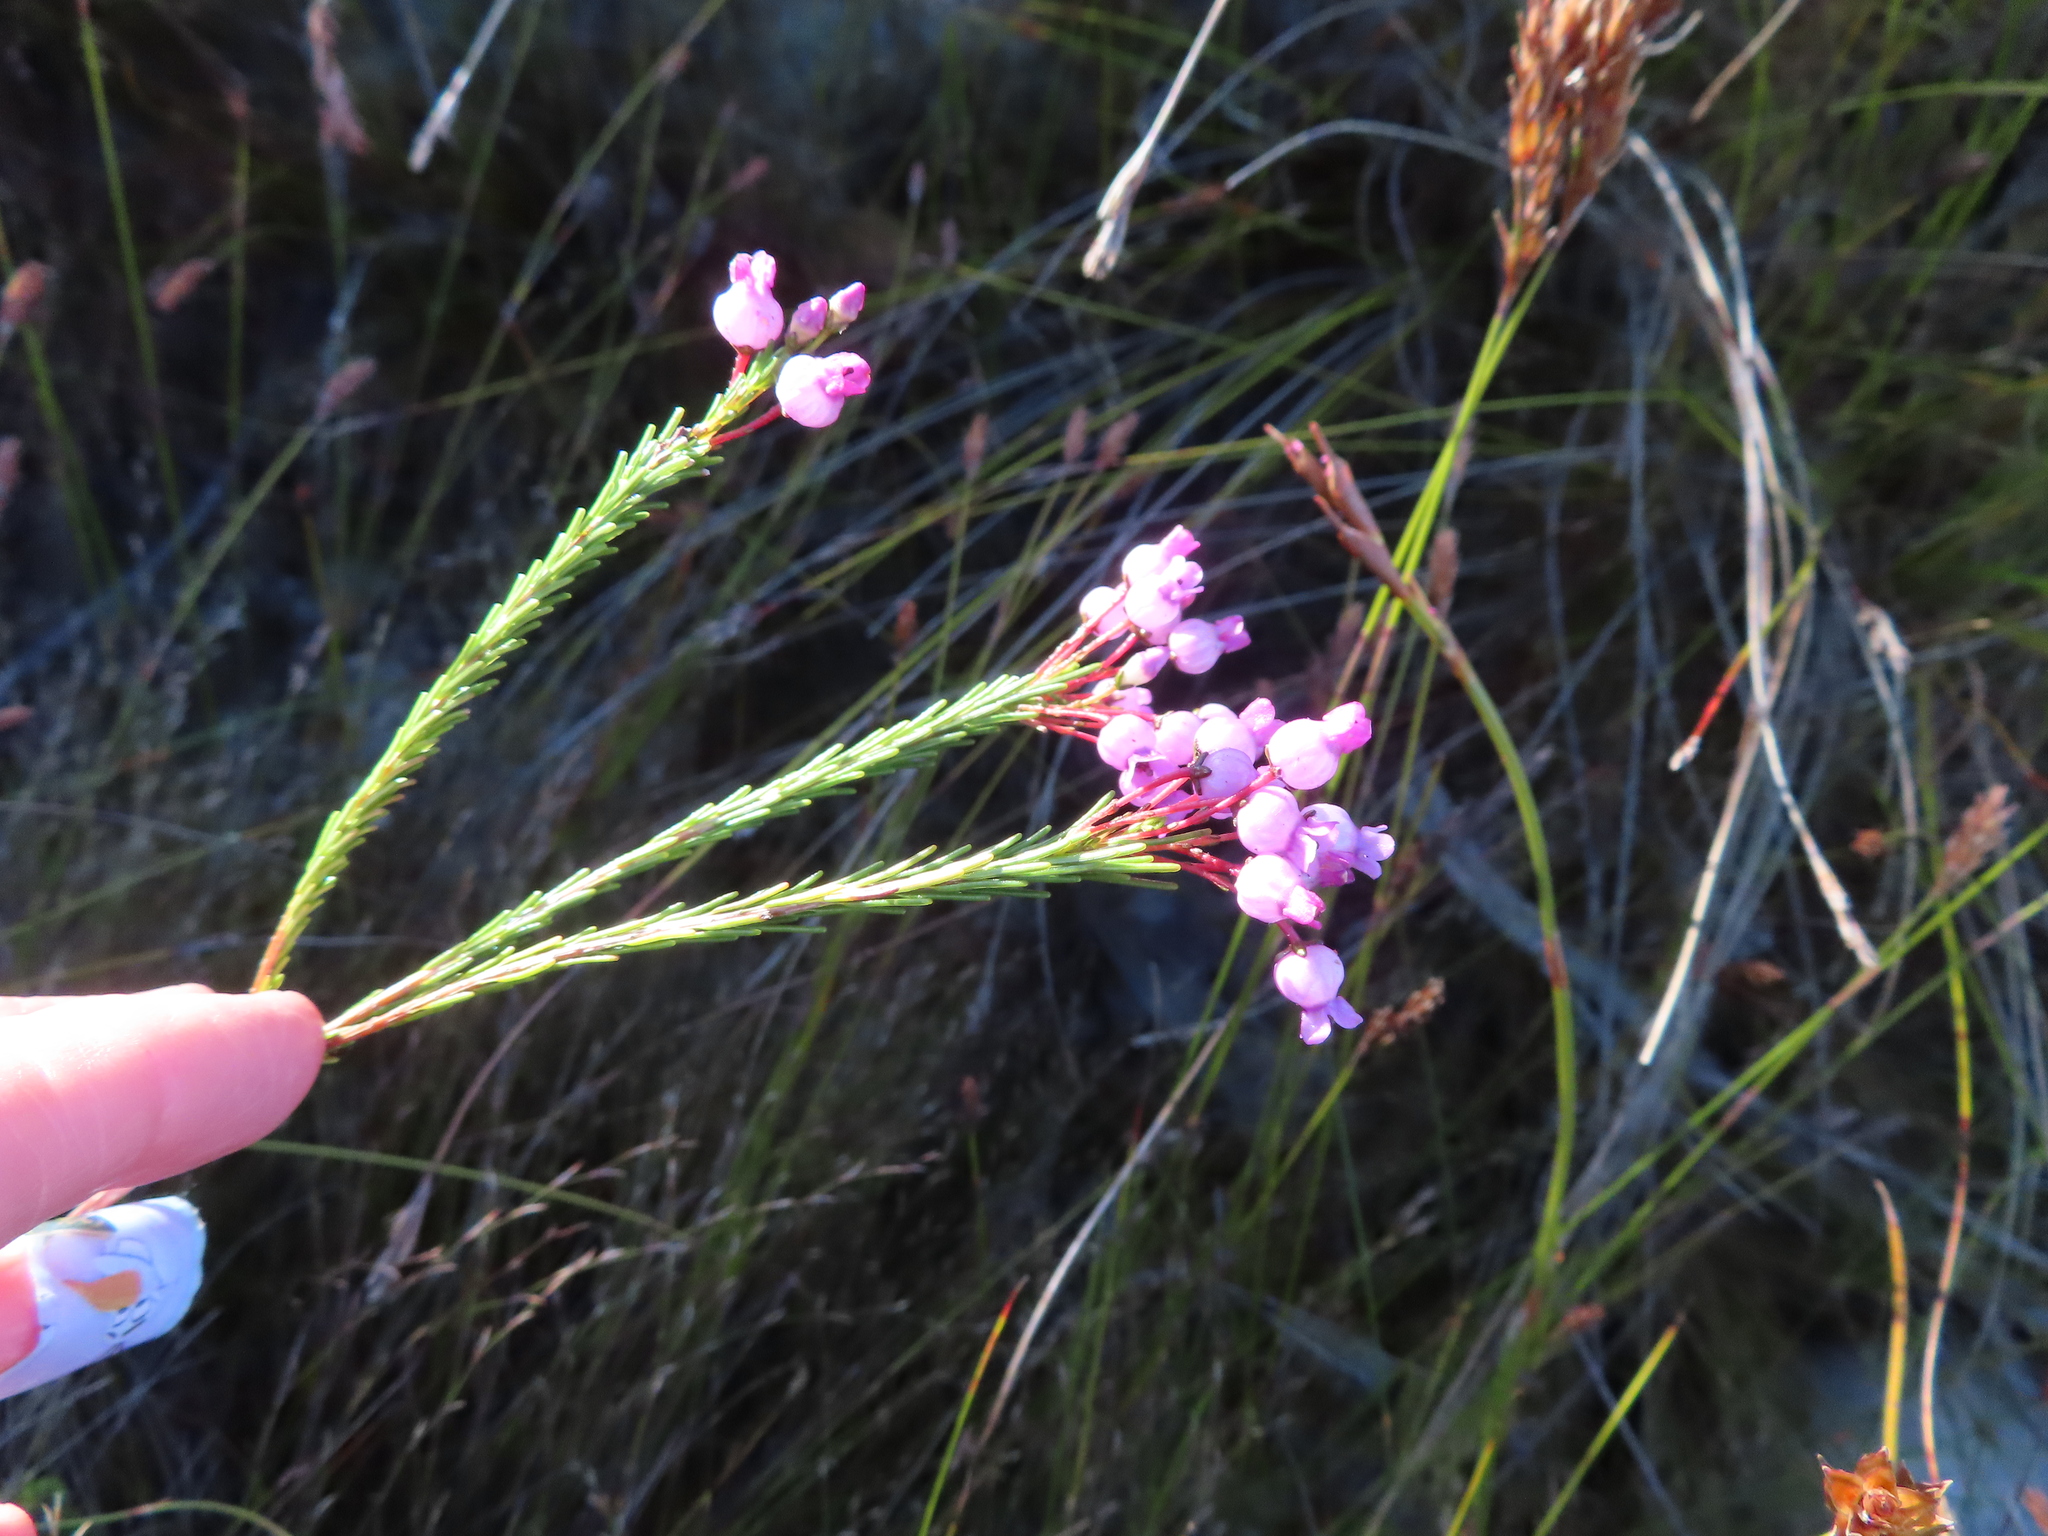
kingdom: Plantae
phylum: Tracheophyta
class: Magnoliopsida
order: Ericales
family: Ericaceae
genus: Erica
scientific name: Erica obliqua
